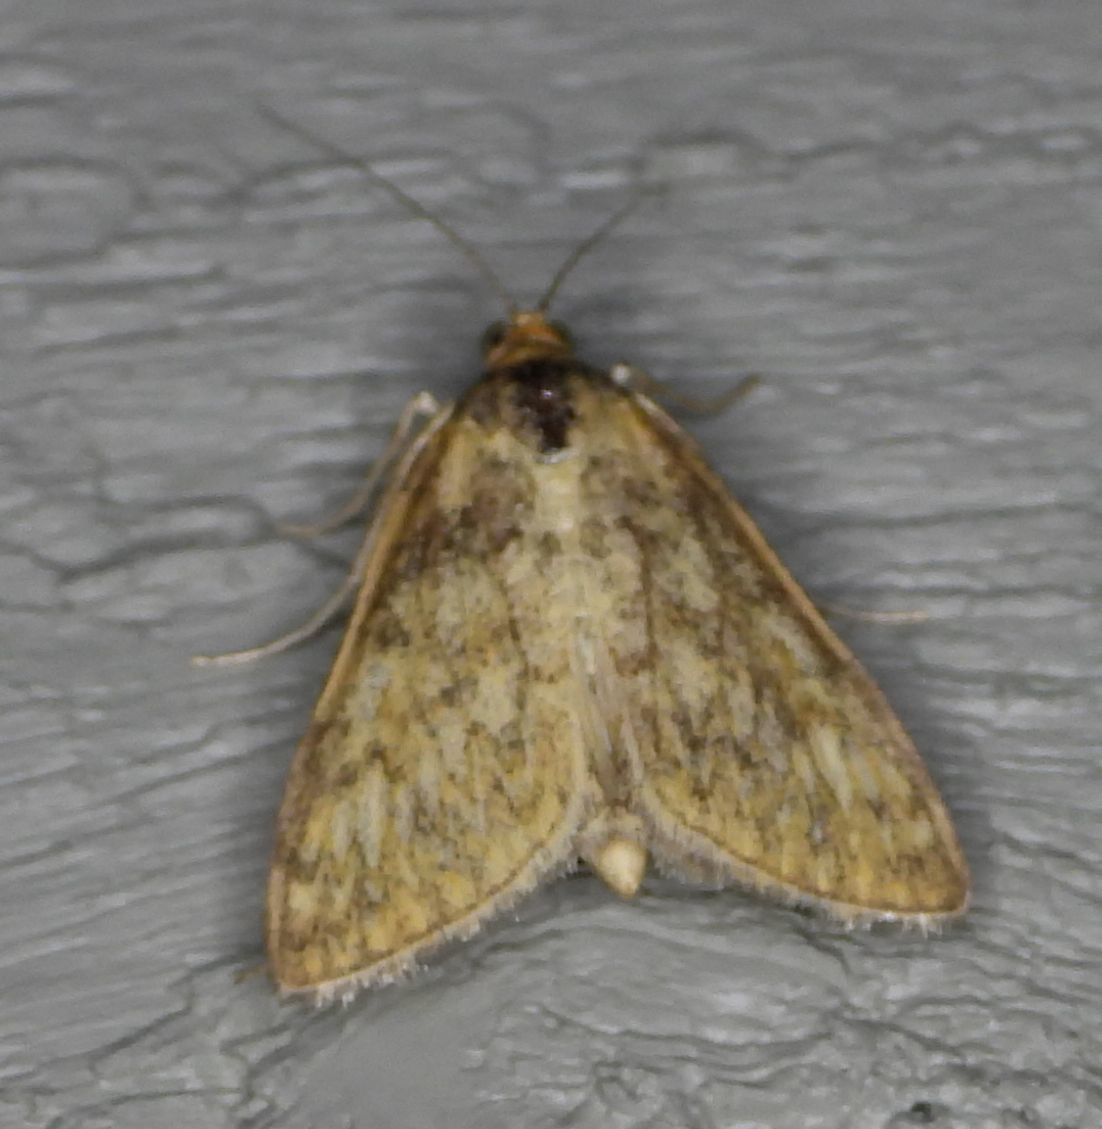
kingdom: Animalia
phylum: Arthropoda
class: Insecta
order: Lepidoptera
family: Crambidae
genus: Sitochroa
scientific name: Sitochroa chortalis
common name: Dimorphic sitochroa moth
